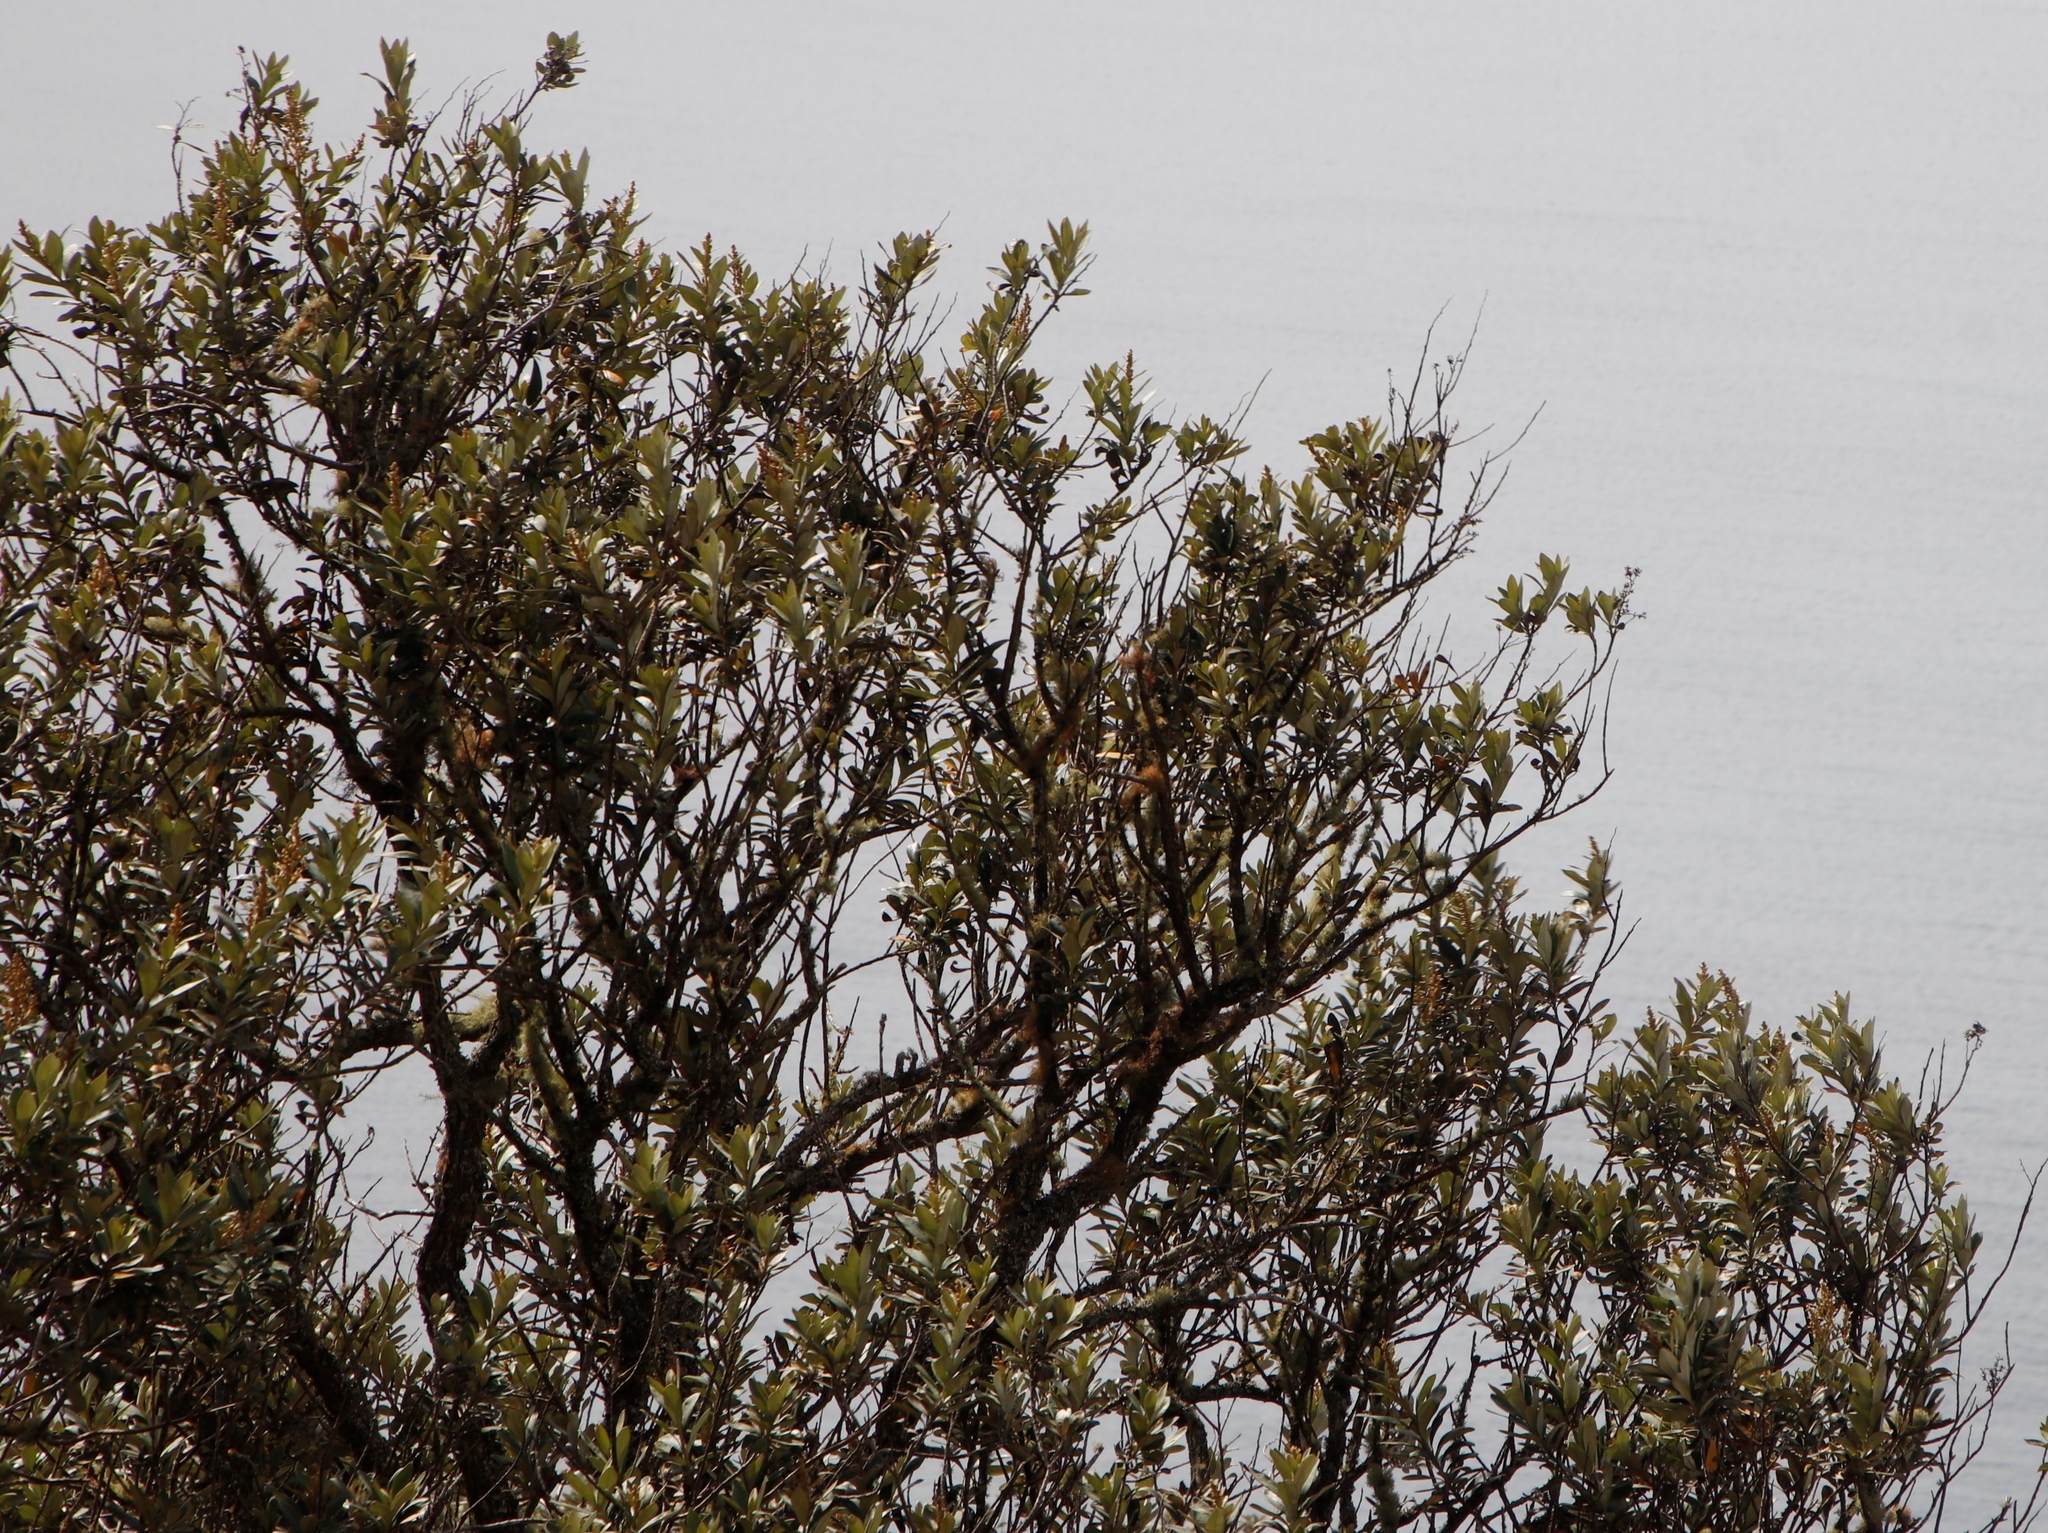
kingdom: Plantae
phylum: Tracheophyta
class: Magnoliopsida
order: Asterales
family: Asteraceae
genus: Tarchonanthus
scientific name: Tarchonanthus littoralis
